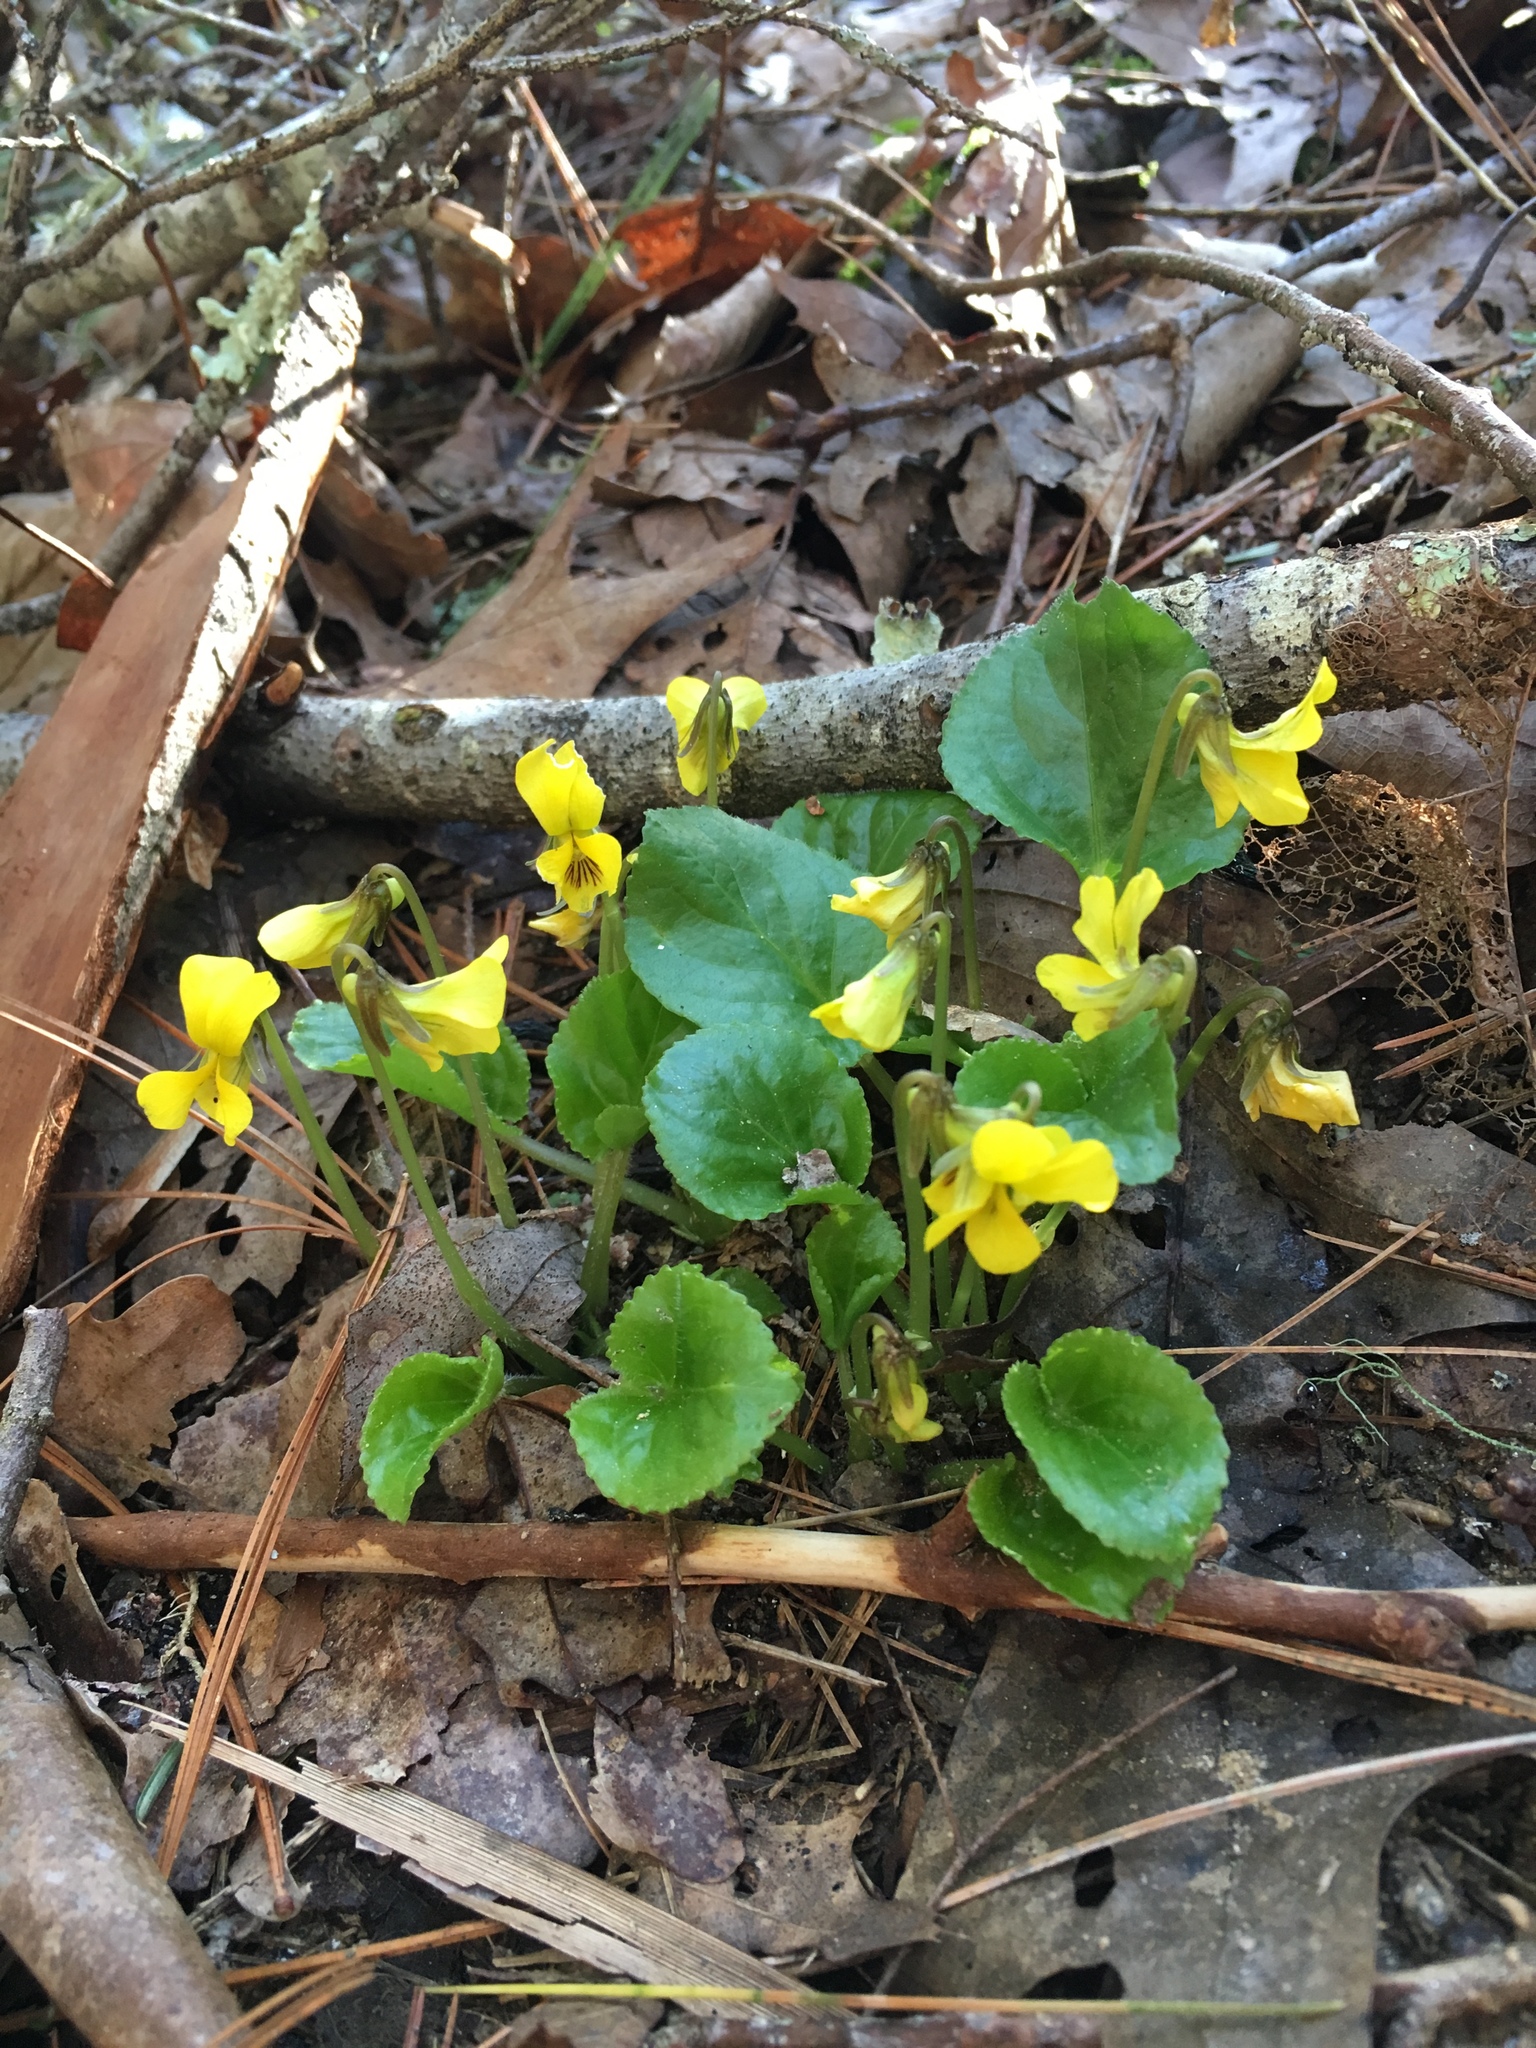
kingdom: Plantae
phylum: Tracheophyta
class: Magnoliopsida
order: Malpighiales
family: Violaceae
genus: Viola
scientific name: Viola rotundifolia
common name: Early yellow violet
